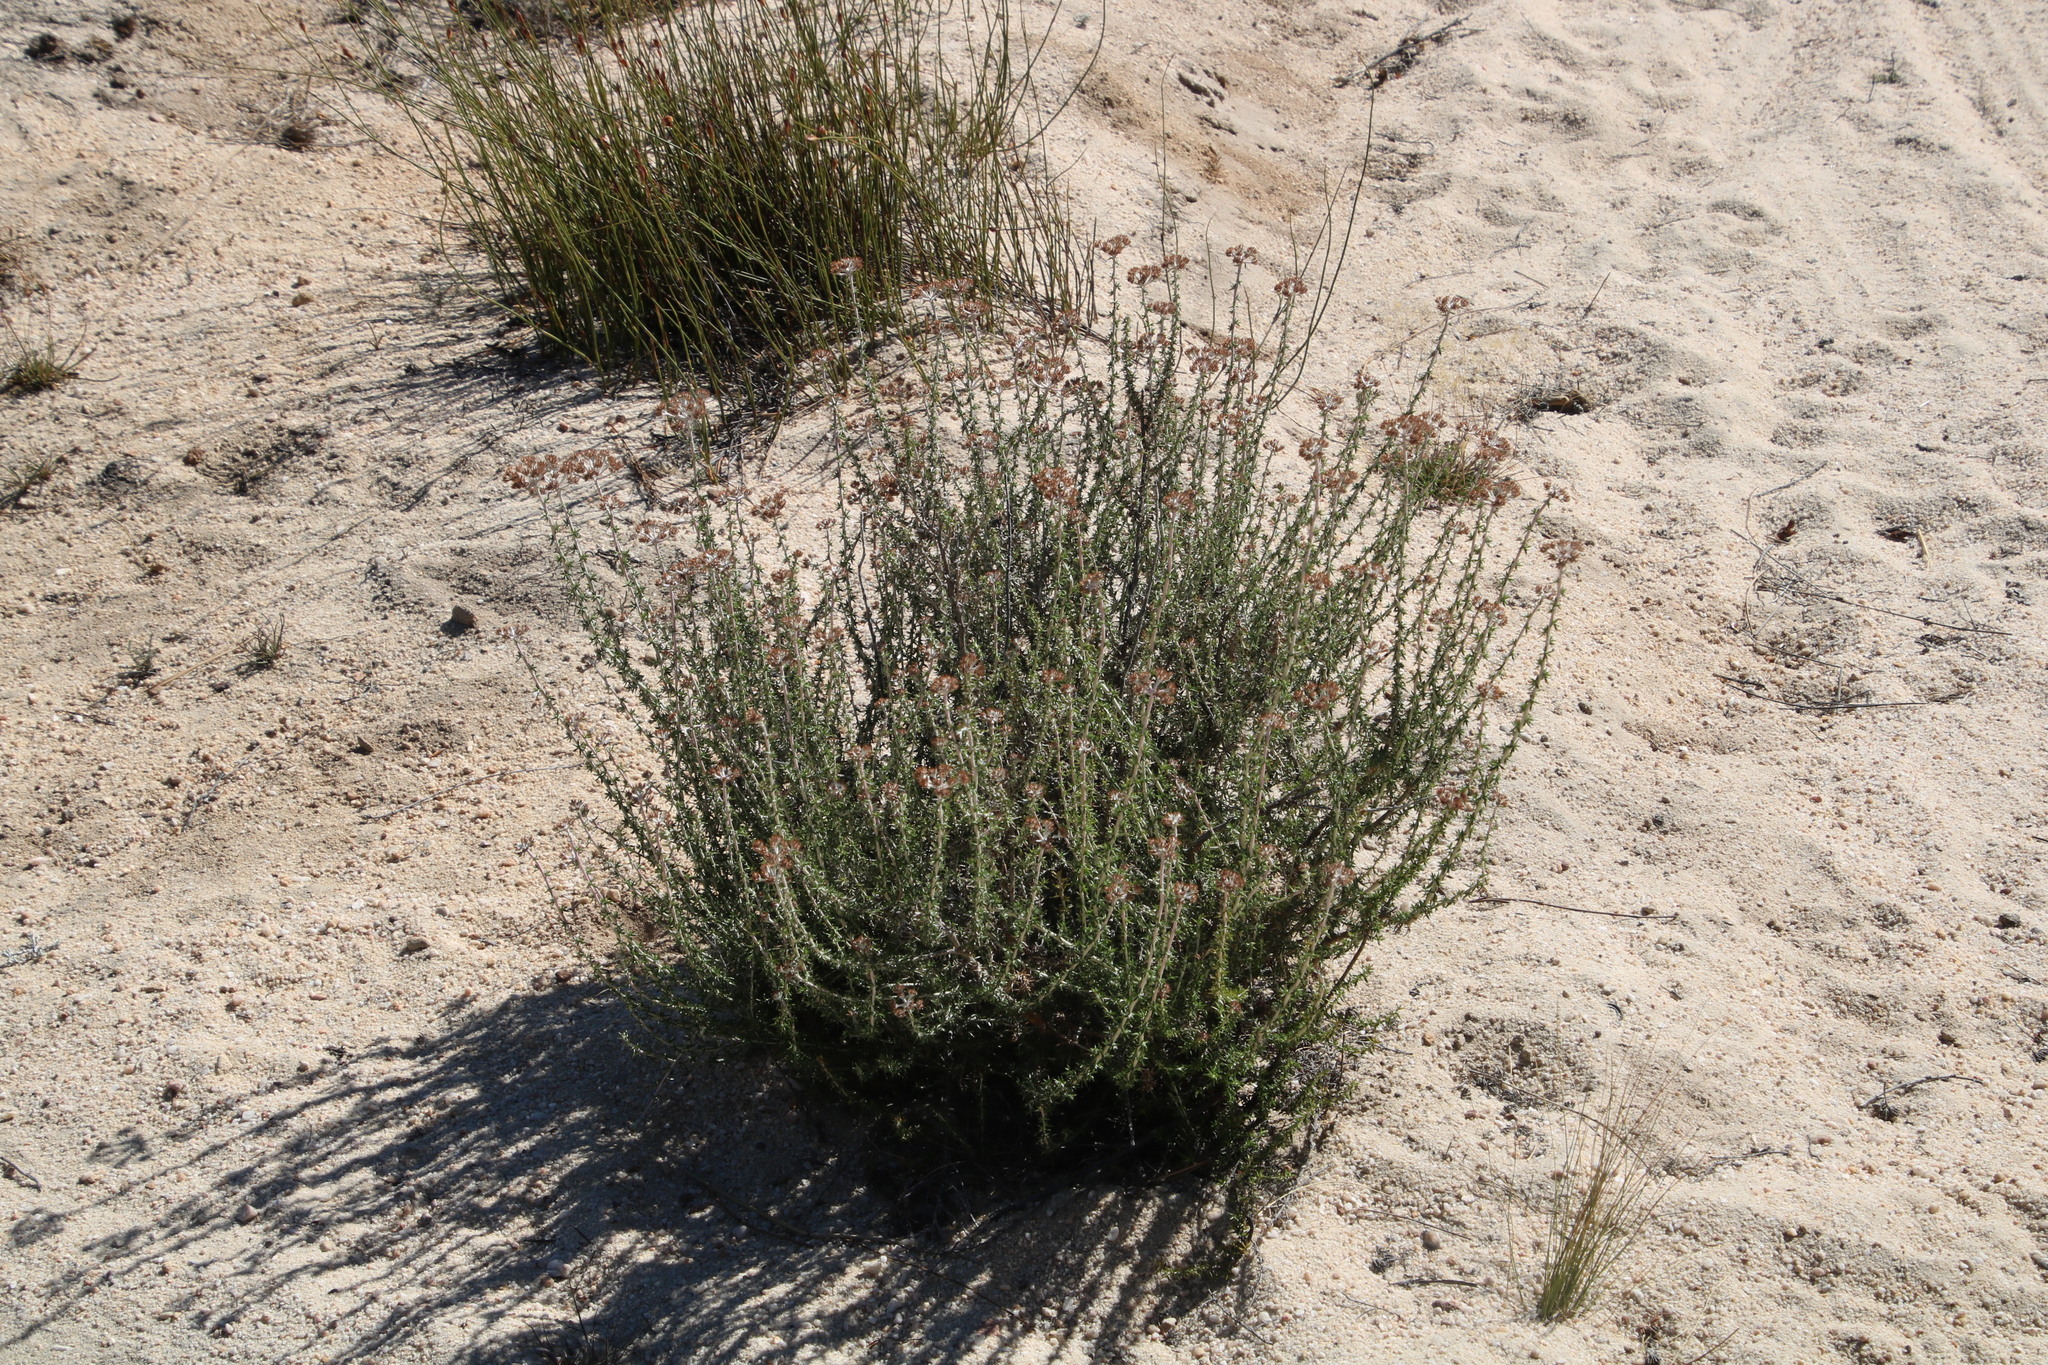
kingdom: Plantae
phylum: Tracheophyta
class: Magnoliopsida
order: Asterales
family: Asteraceae
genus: Metalasia
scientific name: Metalasia densa
